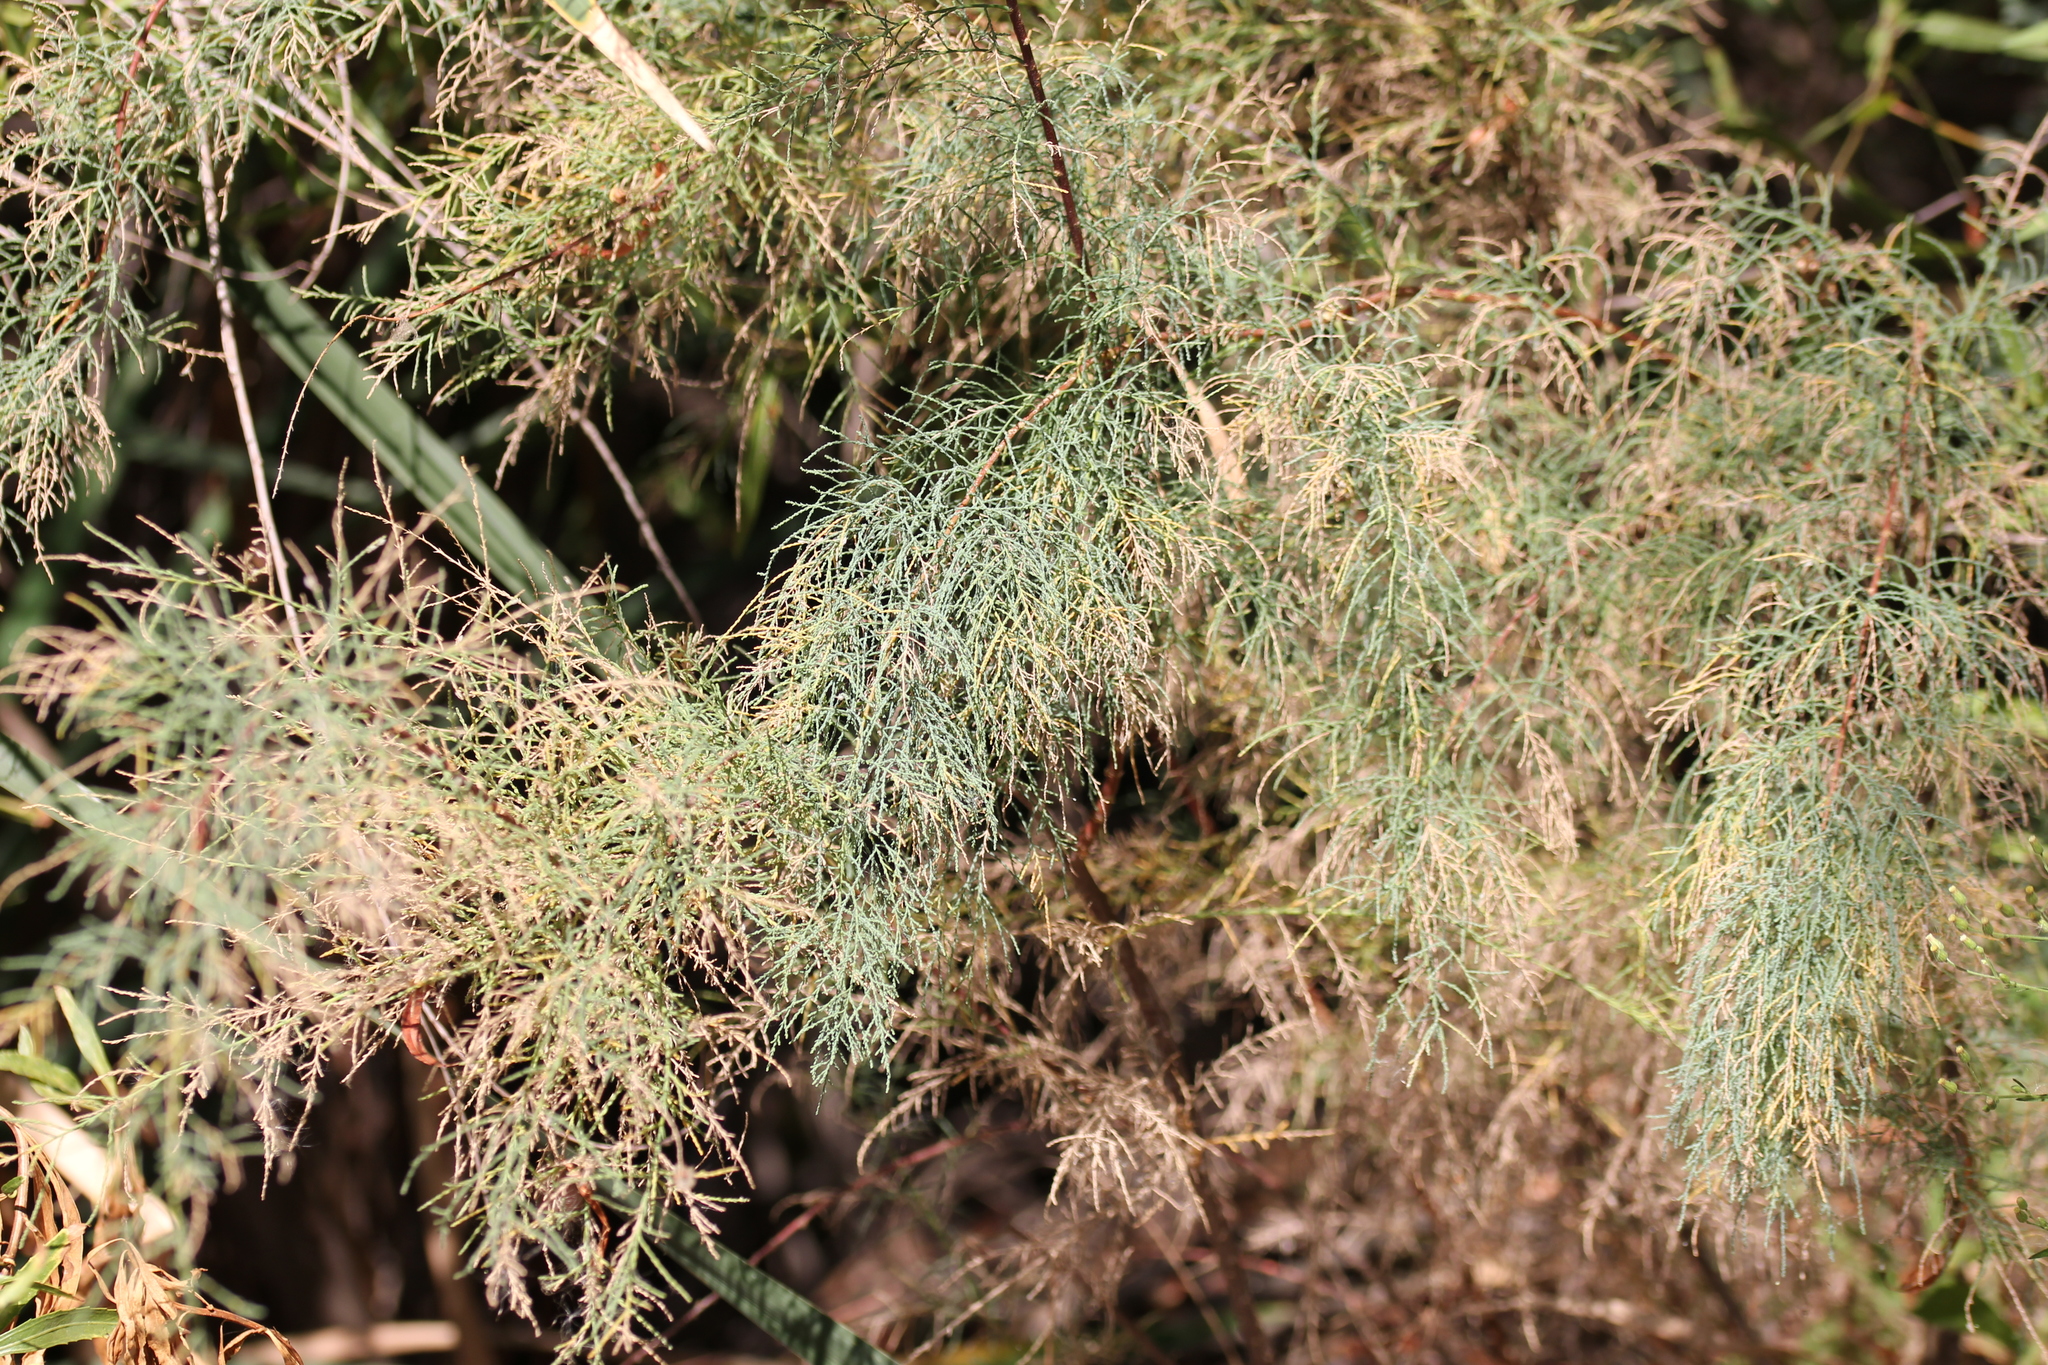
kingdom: Plantae
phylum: Tracheophyta
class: Magnoliopsida
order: Caryophyllales
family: Tamaricaceae
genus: Tamarix
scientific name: Tamarix ramosissima
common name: Pink tamarisk
